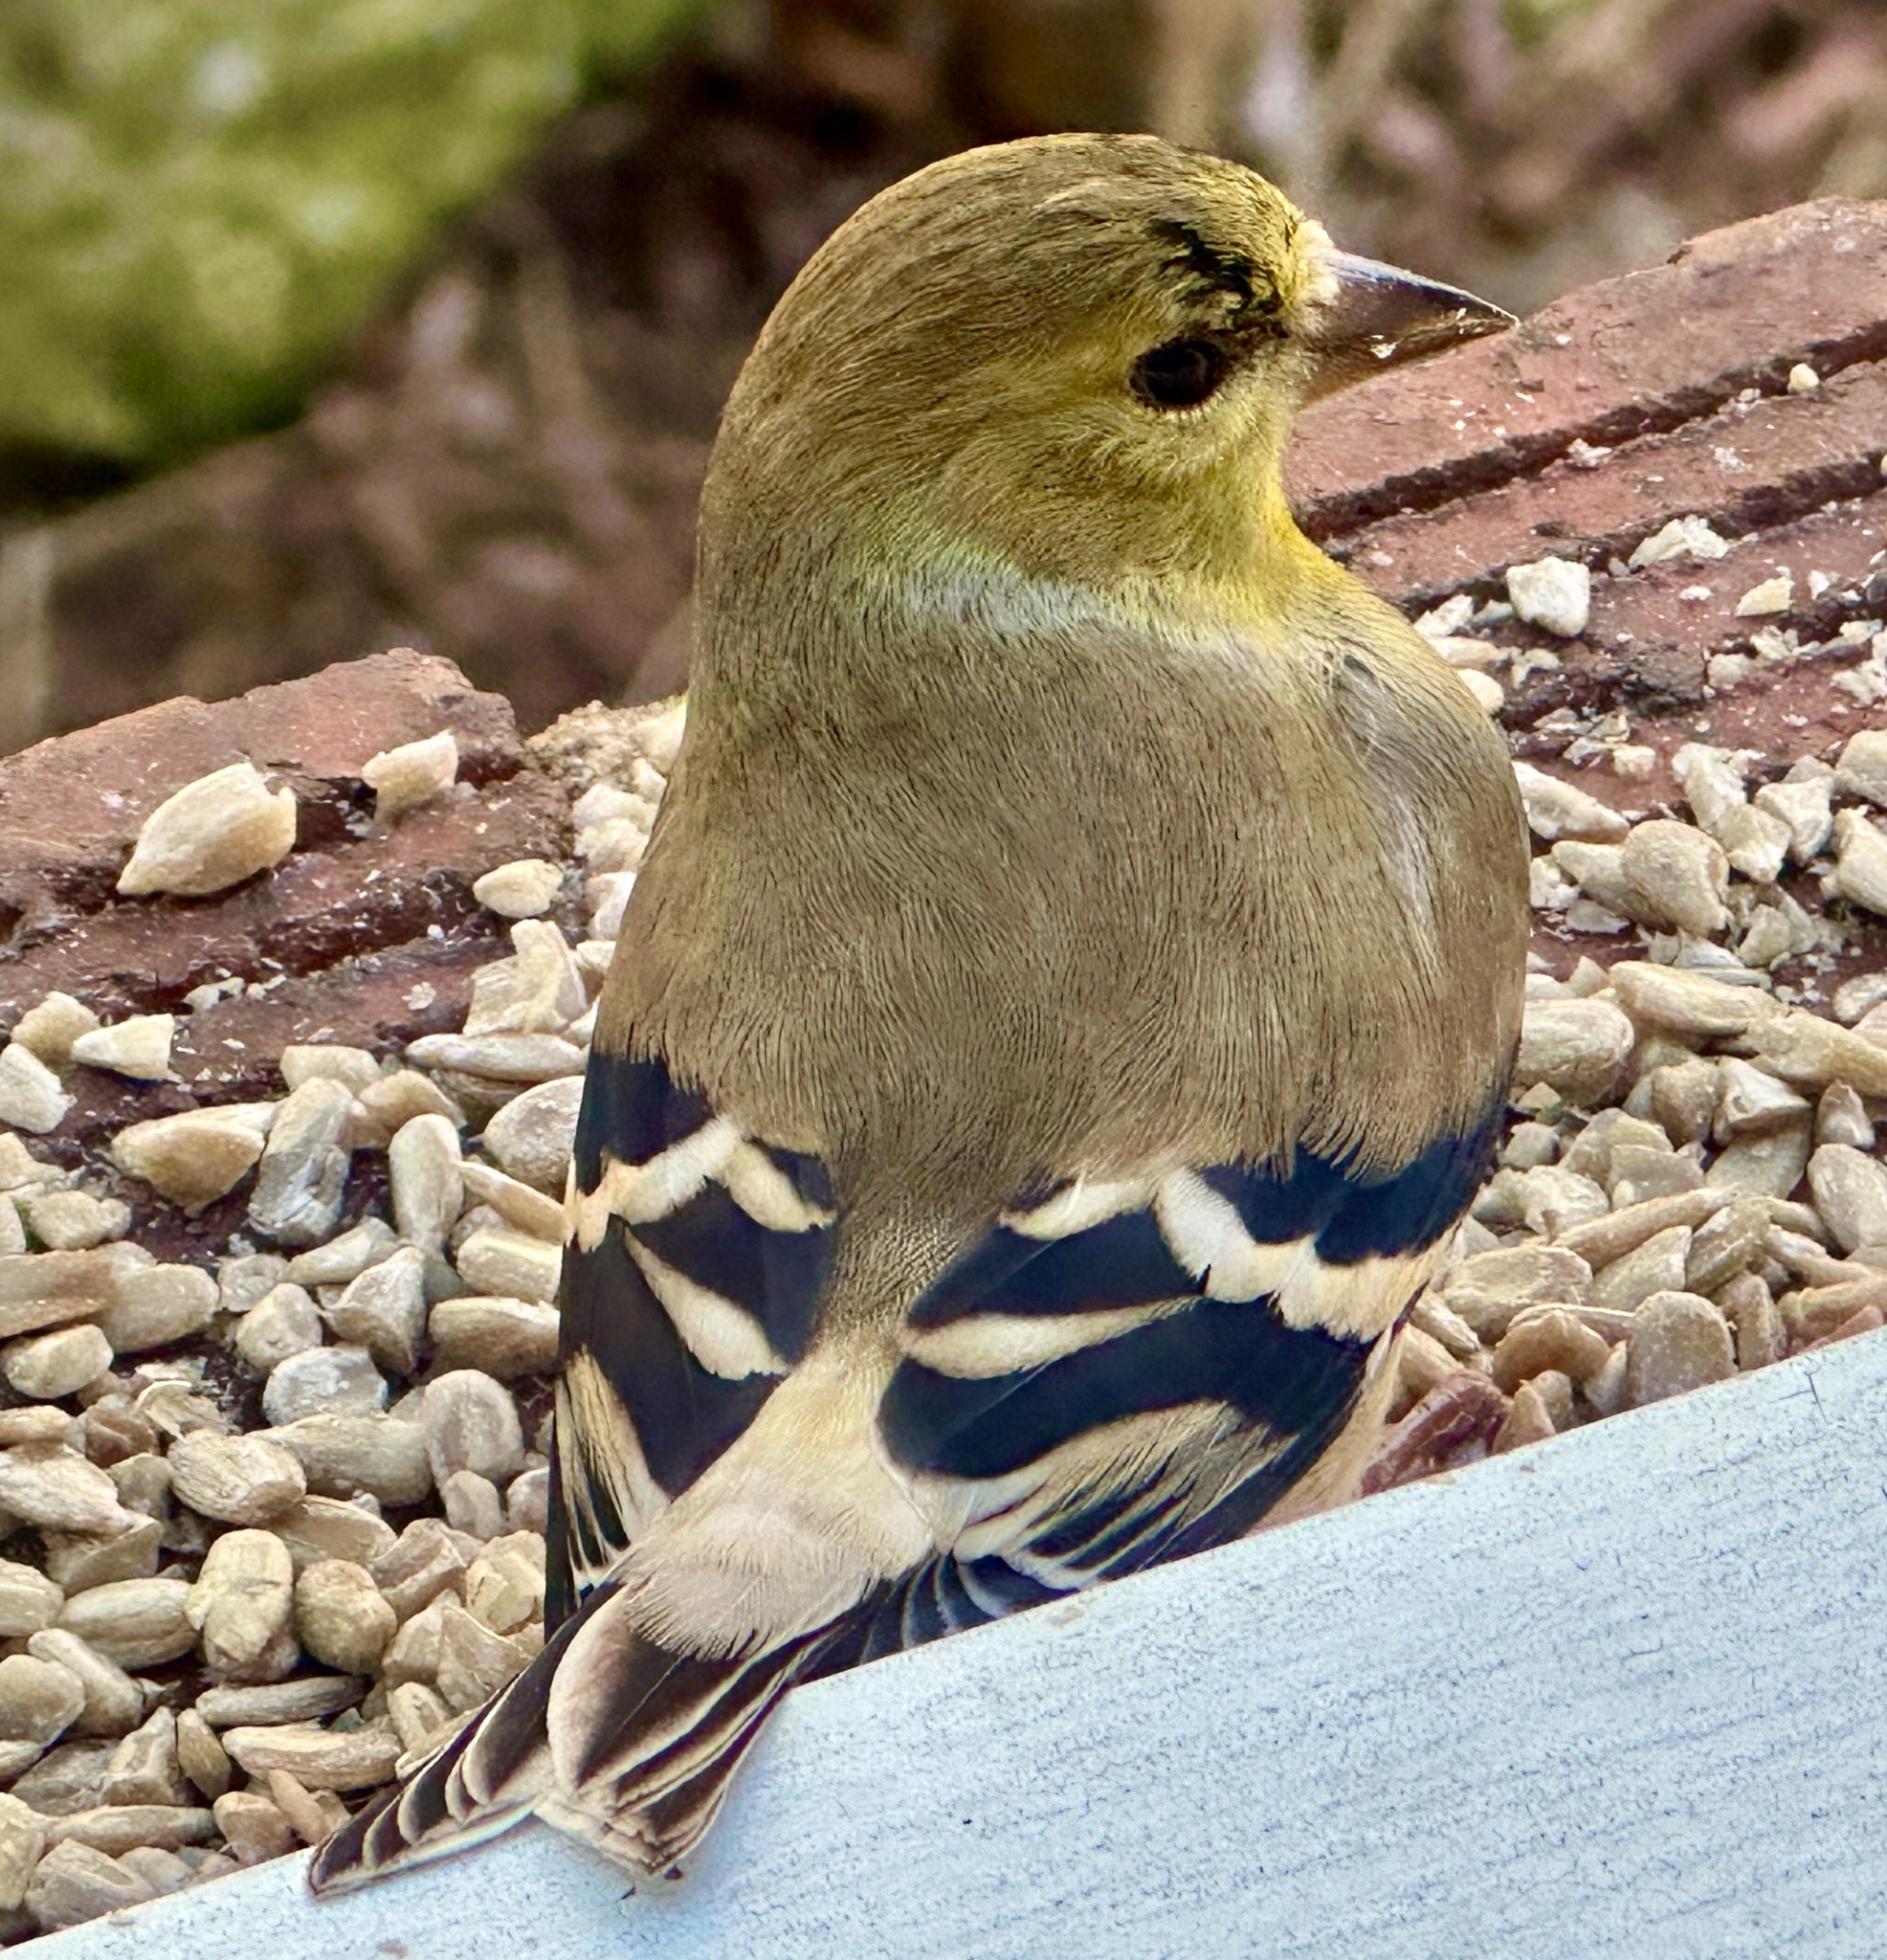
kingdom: Animalia
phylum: Chordata
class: Aves
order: Passeriformes
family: Fringillidae
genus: Spinus
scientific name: Spinus tristis
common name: American goldfinch
